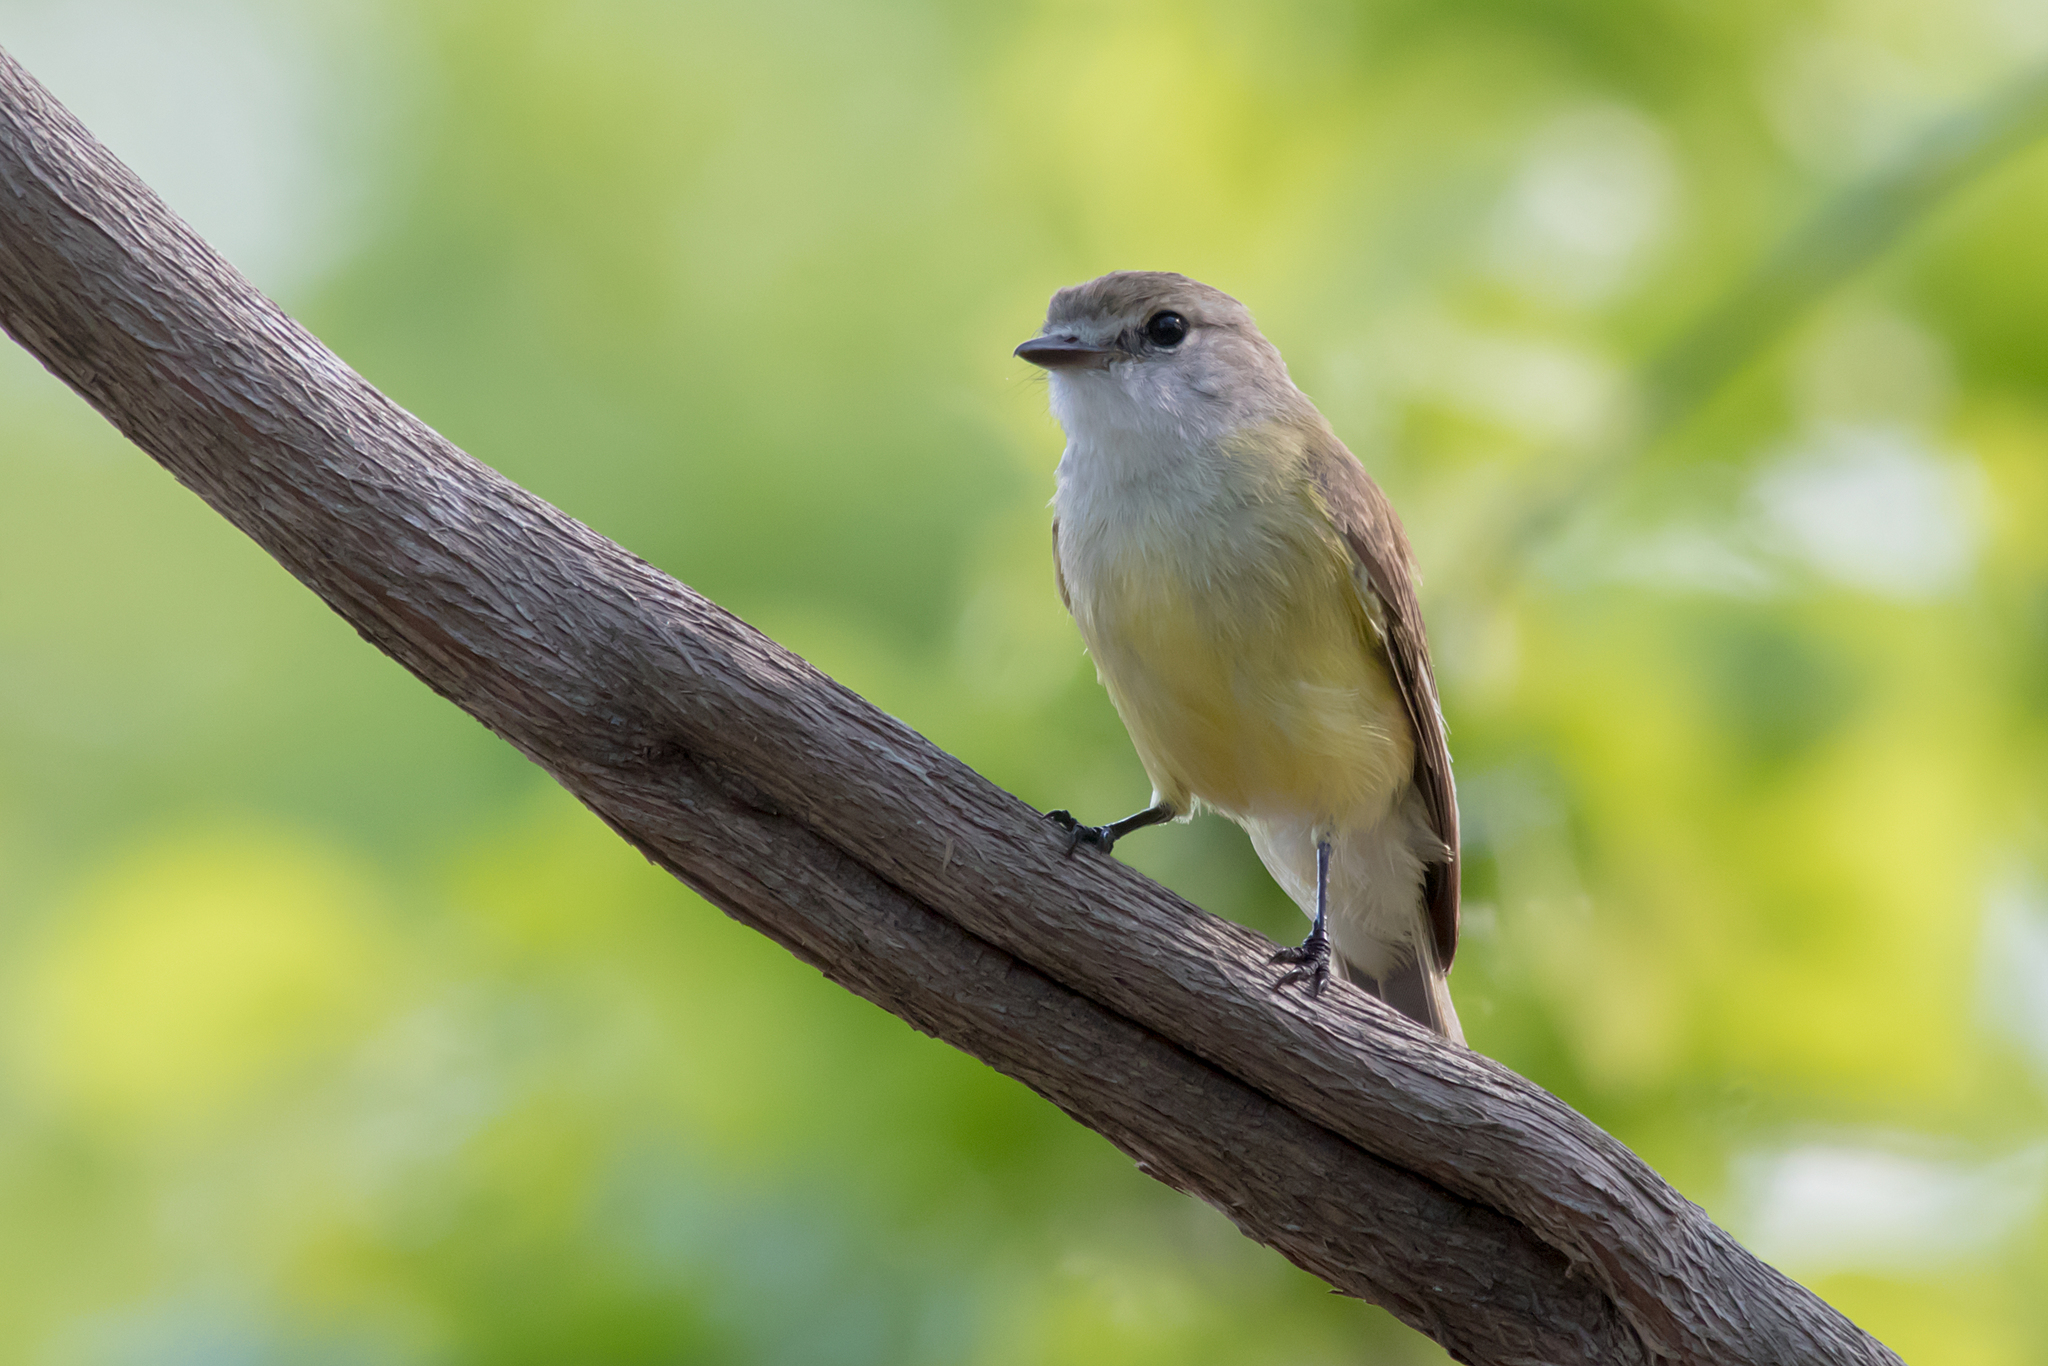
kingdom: Animalia
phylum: Chordata
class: Aves
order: Passeriformes
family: Petroicidae
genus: Microeca
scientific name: Microeca flavigaster
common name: Lemon-bellied flyrobin
